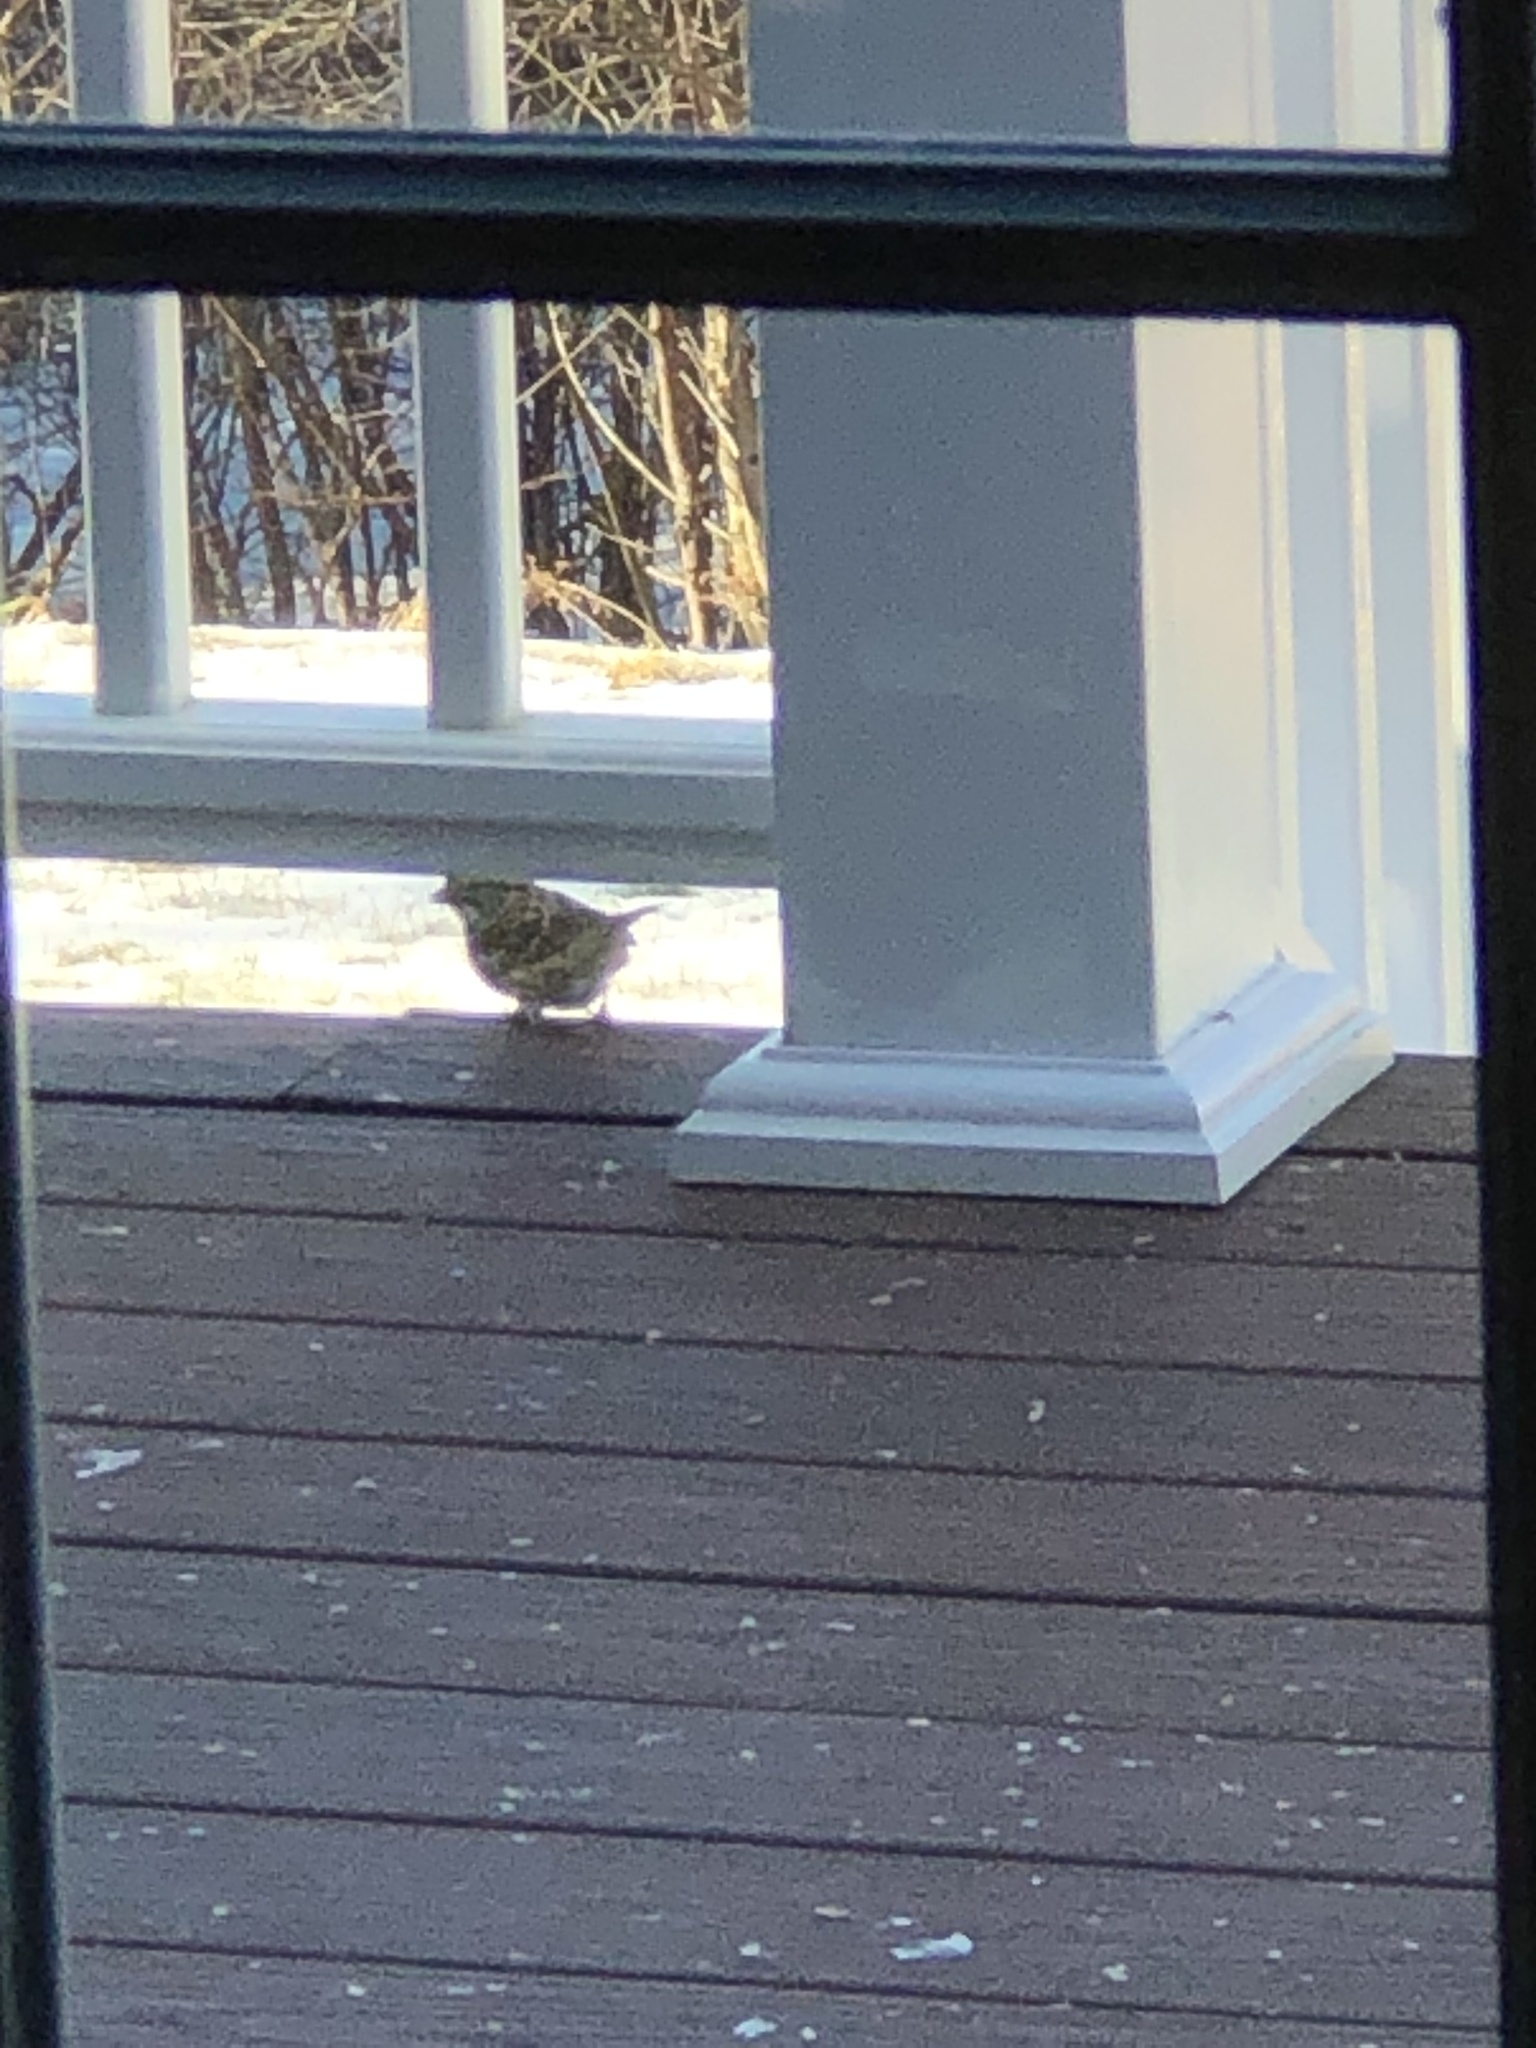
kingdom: Animalia
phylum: Chordata
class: Aves
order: Passeriformes
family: Passerellidae
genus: Zonotrichia
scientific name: Zonotrichia albicollis
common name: White-throated sparrow
